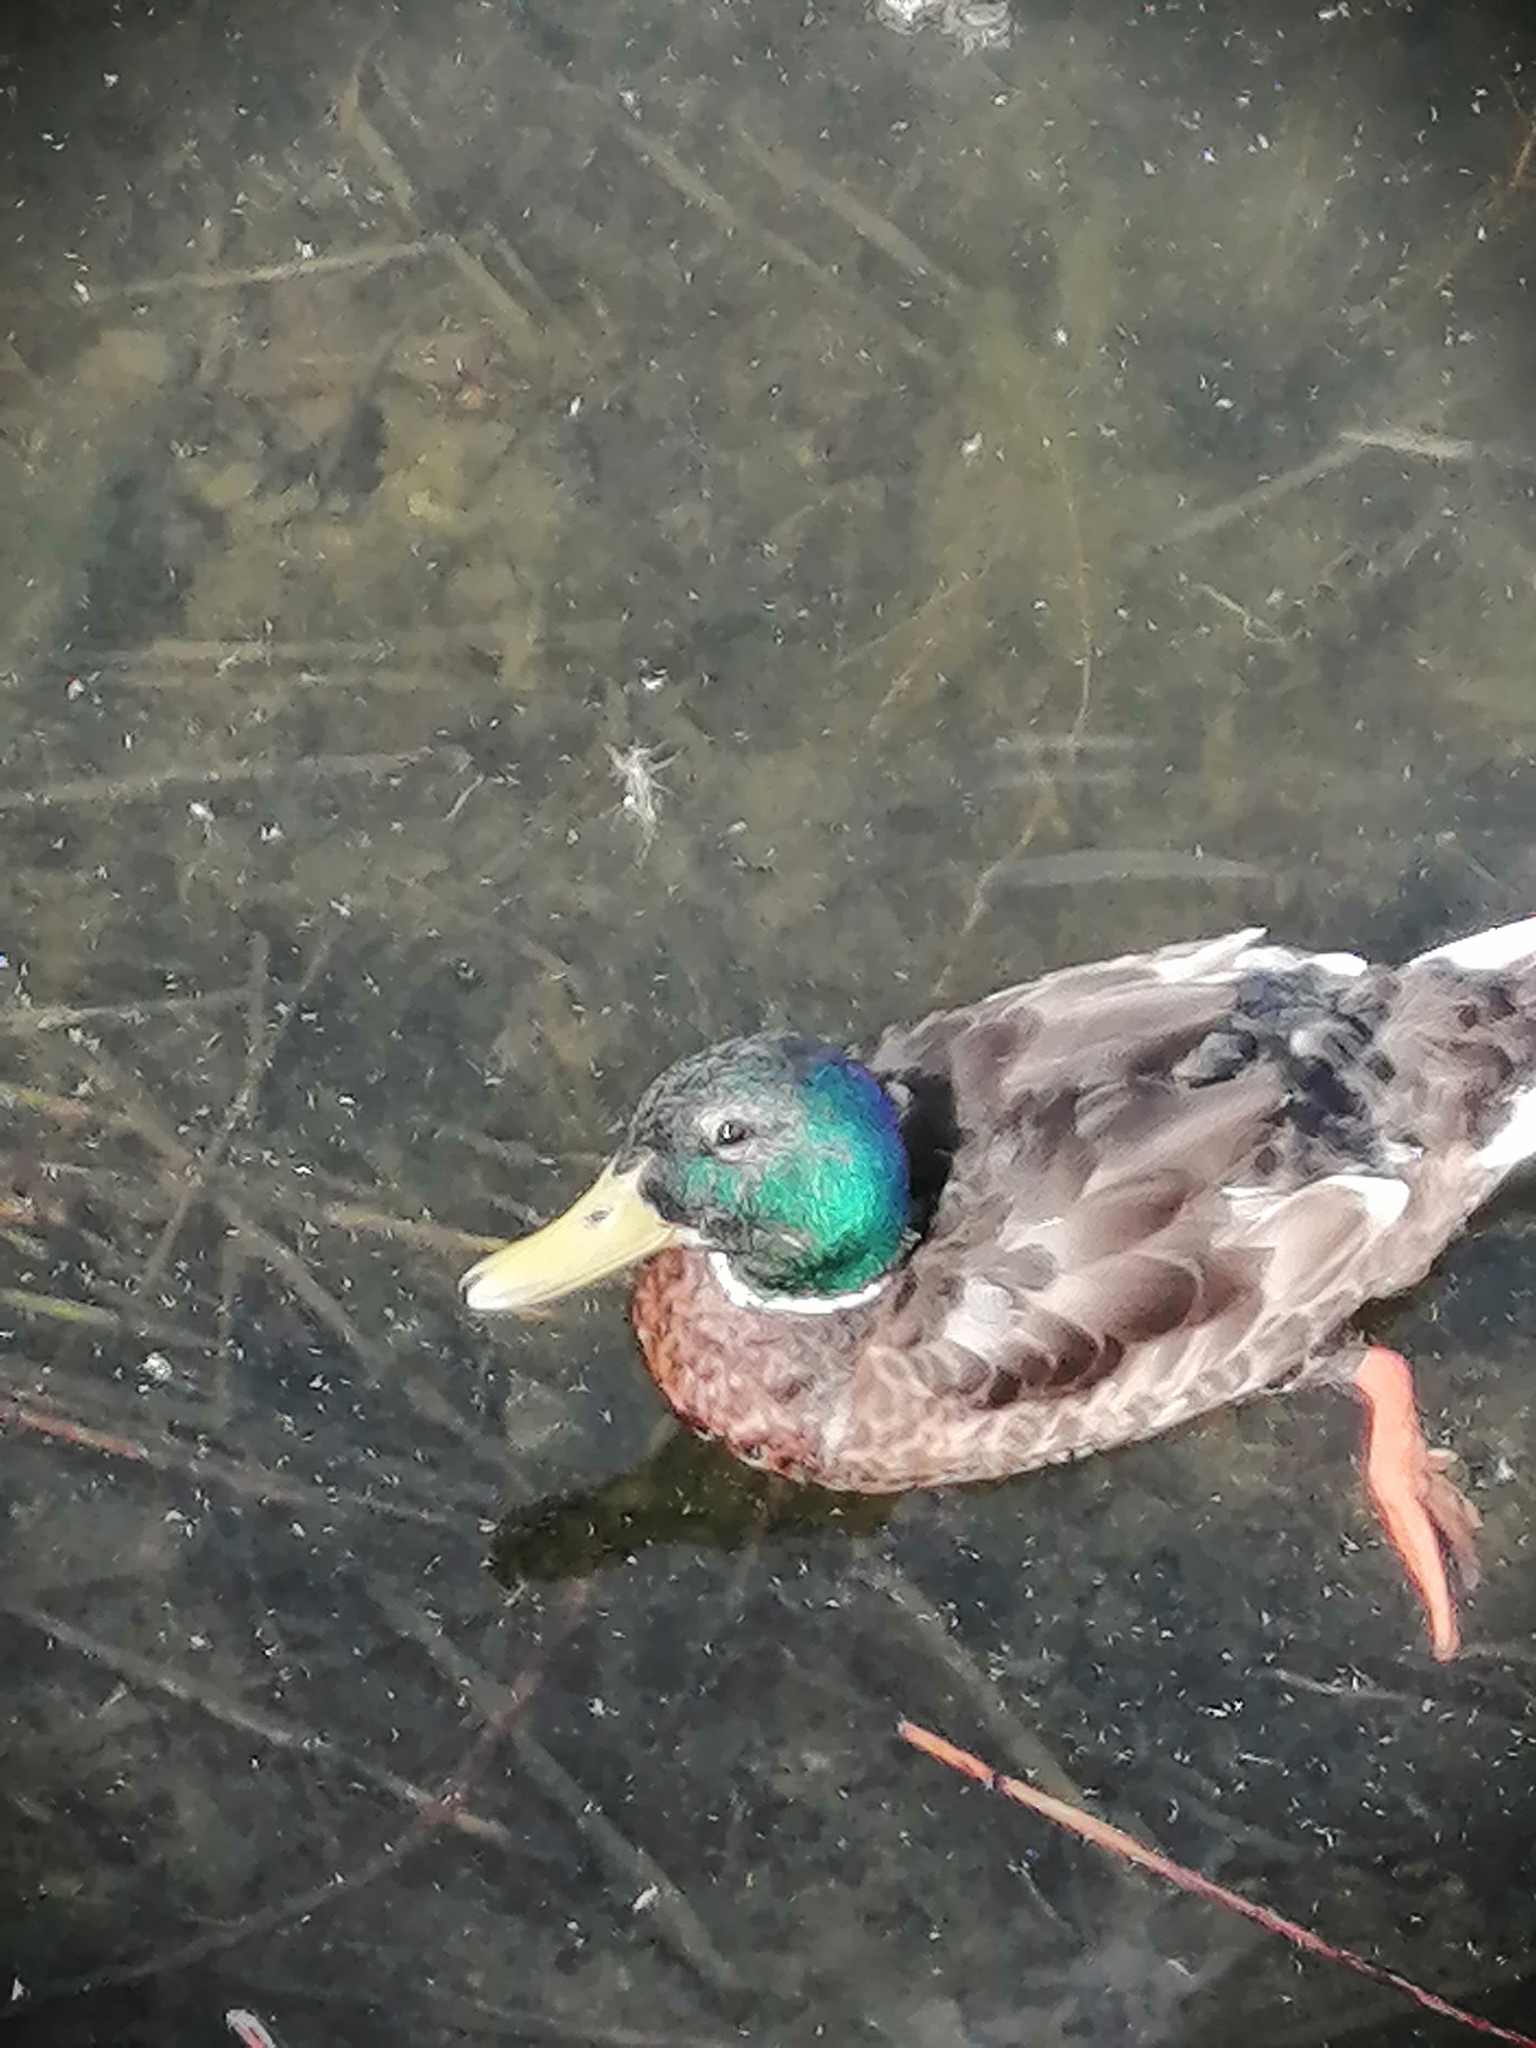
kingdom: Animalia
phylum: Chordata
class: Aves
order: Anseriformes
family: Anatidae
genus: Anas
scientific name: Anas platyrhynchos
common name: Mallard
